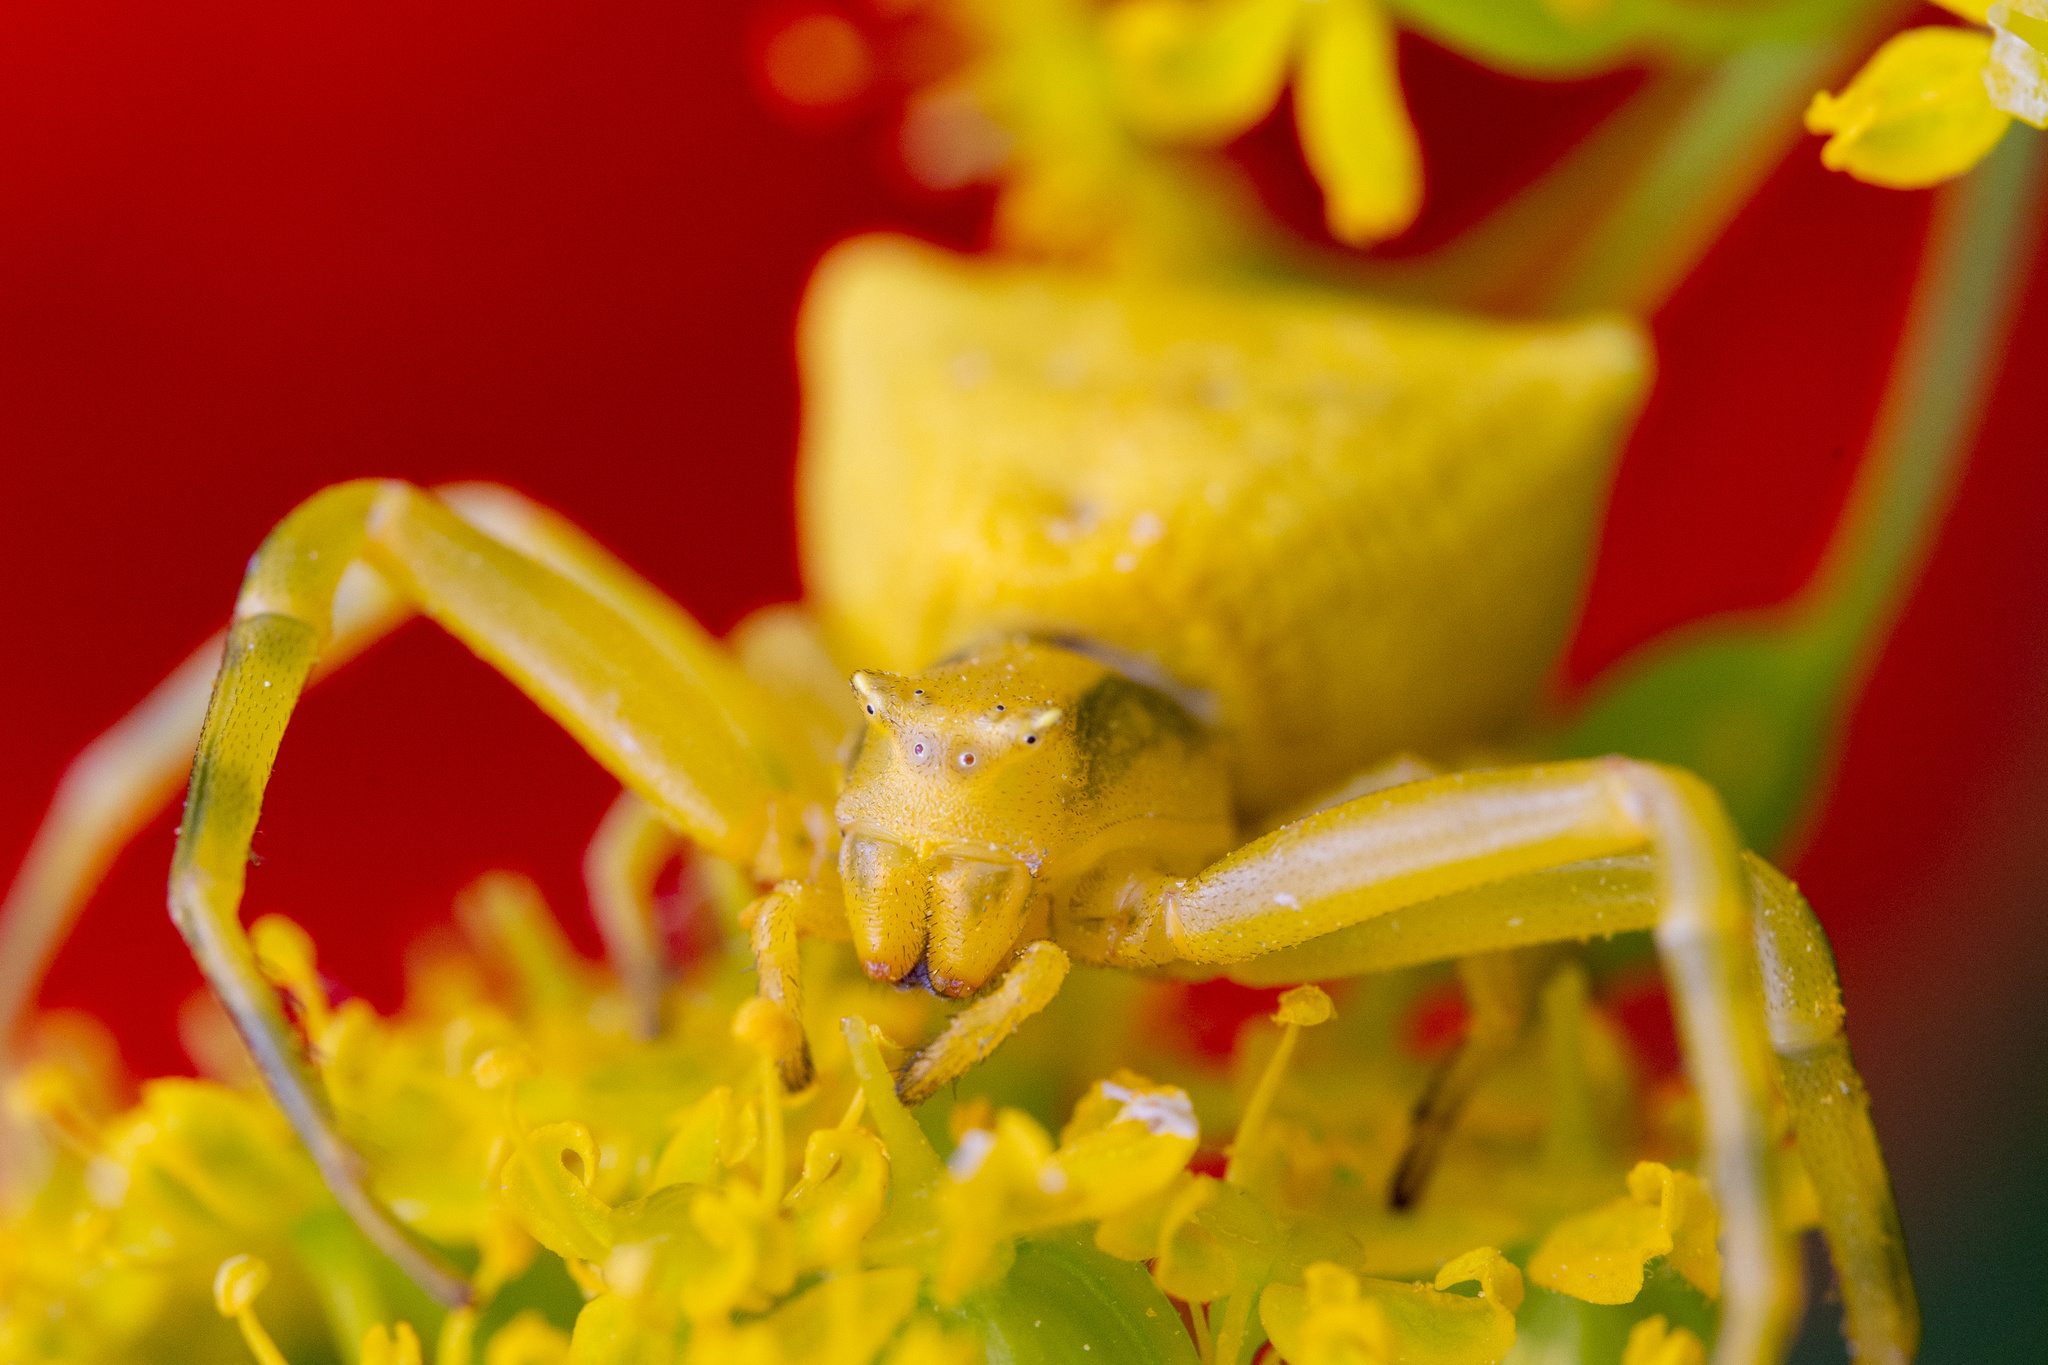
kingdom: Animalia
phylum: Arthropoda
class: Arachnida
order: Araneae
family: Thomisidae
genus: Thomisus
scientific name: Thomisus onustus
